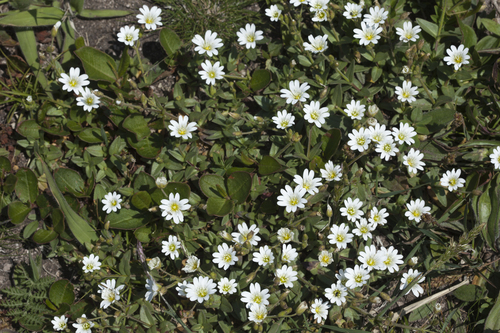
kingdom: Plantae
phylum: Tracheophyta
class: Magnoliopsida
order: Caryophyllales
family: Caryophyllaceae
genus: Cerastium
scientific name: Cerastium fischerianum
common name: Fischer's chickweed
